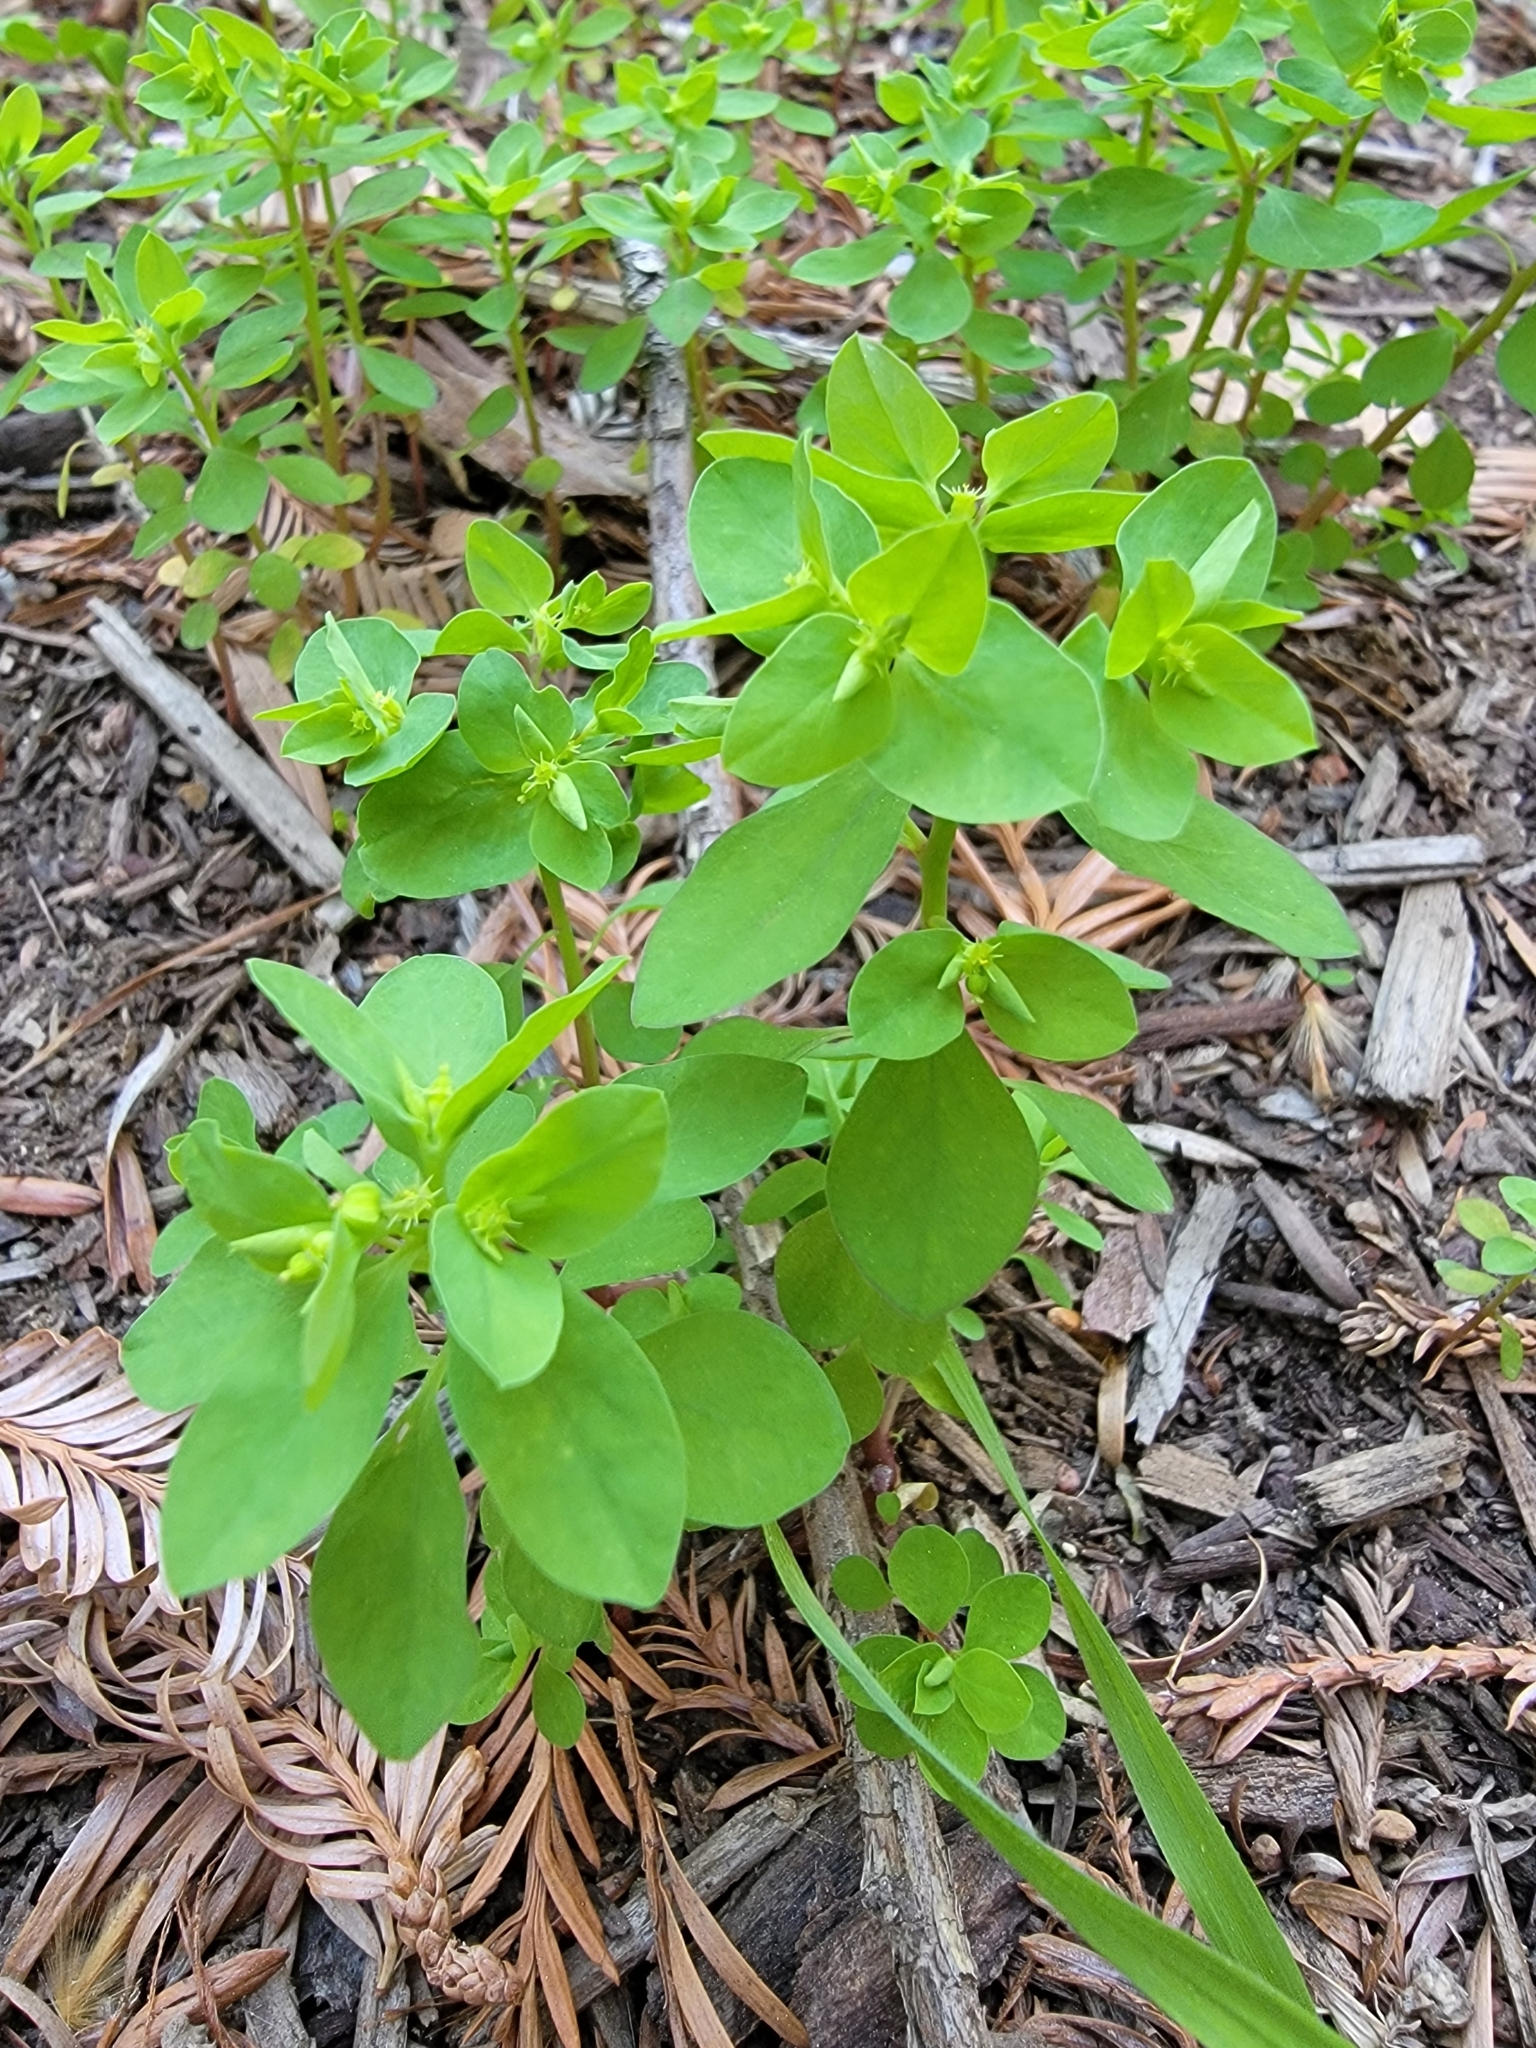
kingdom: Plantae
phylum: Tracheophyta
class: Magnoliopsida
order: Malpighiales
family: Euphorbiaceae
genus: Euphorbia
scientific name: Euphorbia peplus
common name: Petty spurge
